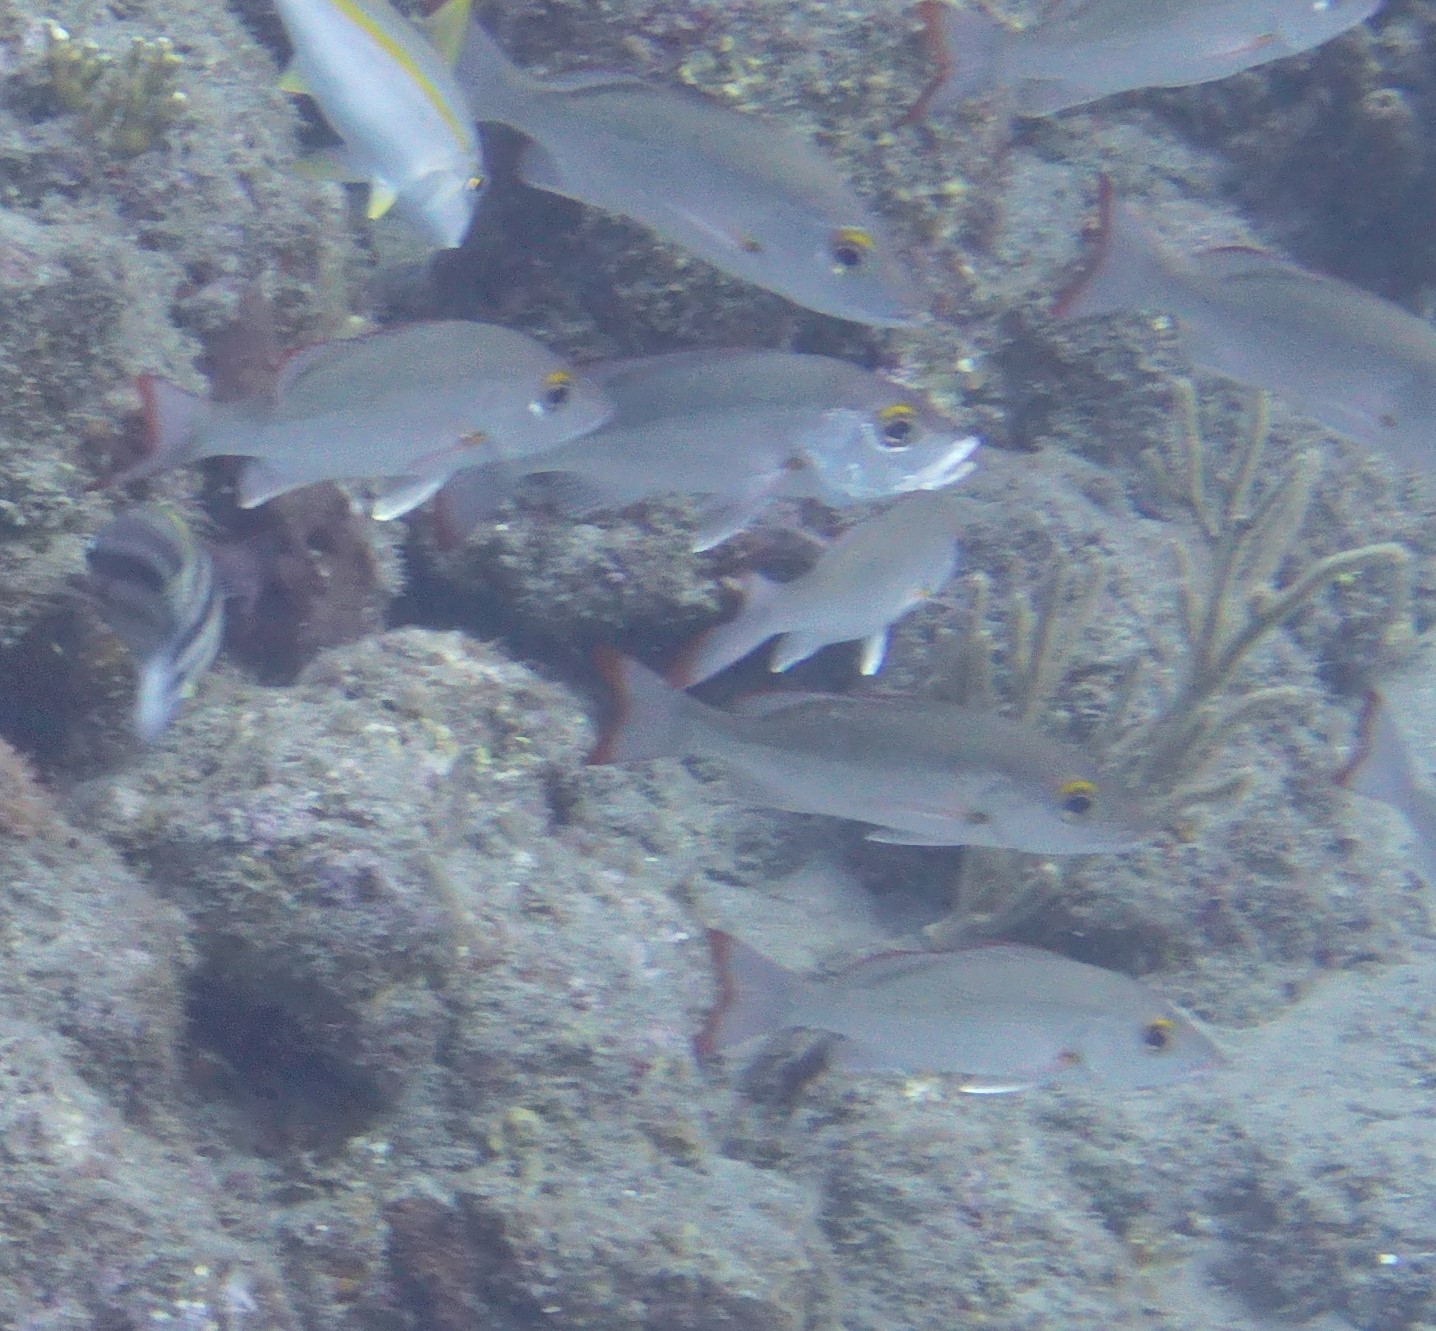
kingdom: Animalia
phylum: Chordata
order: Perciformes
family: Lutjanidae
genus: Lutjanus
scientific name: Lutjanus mahogoni
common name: Spot snapper
